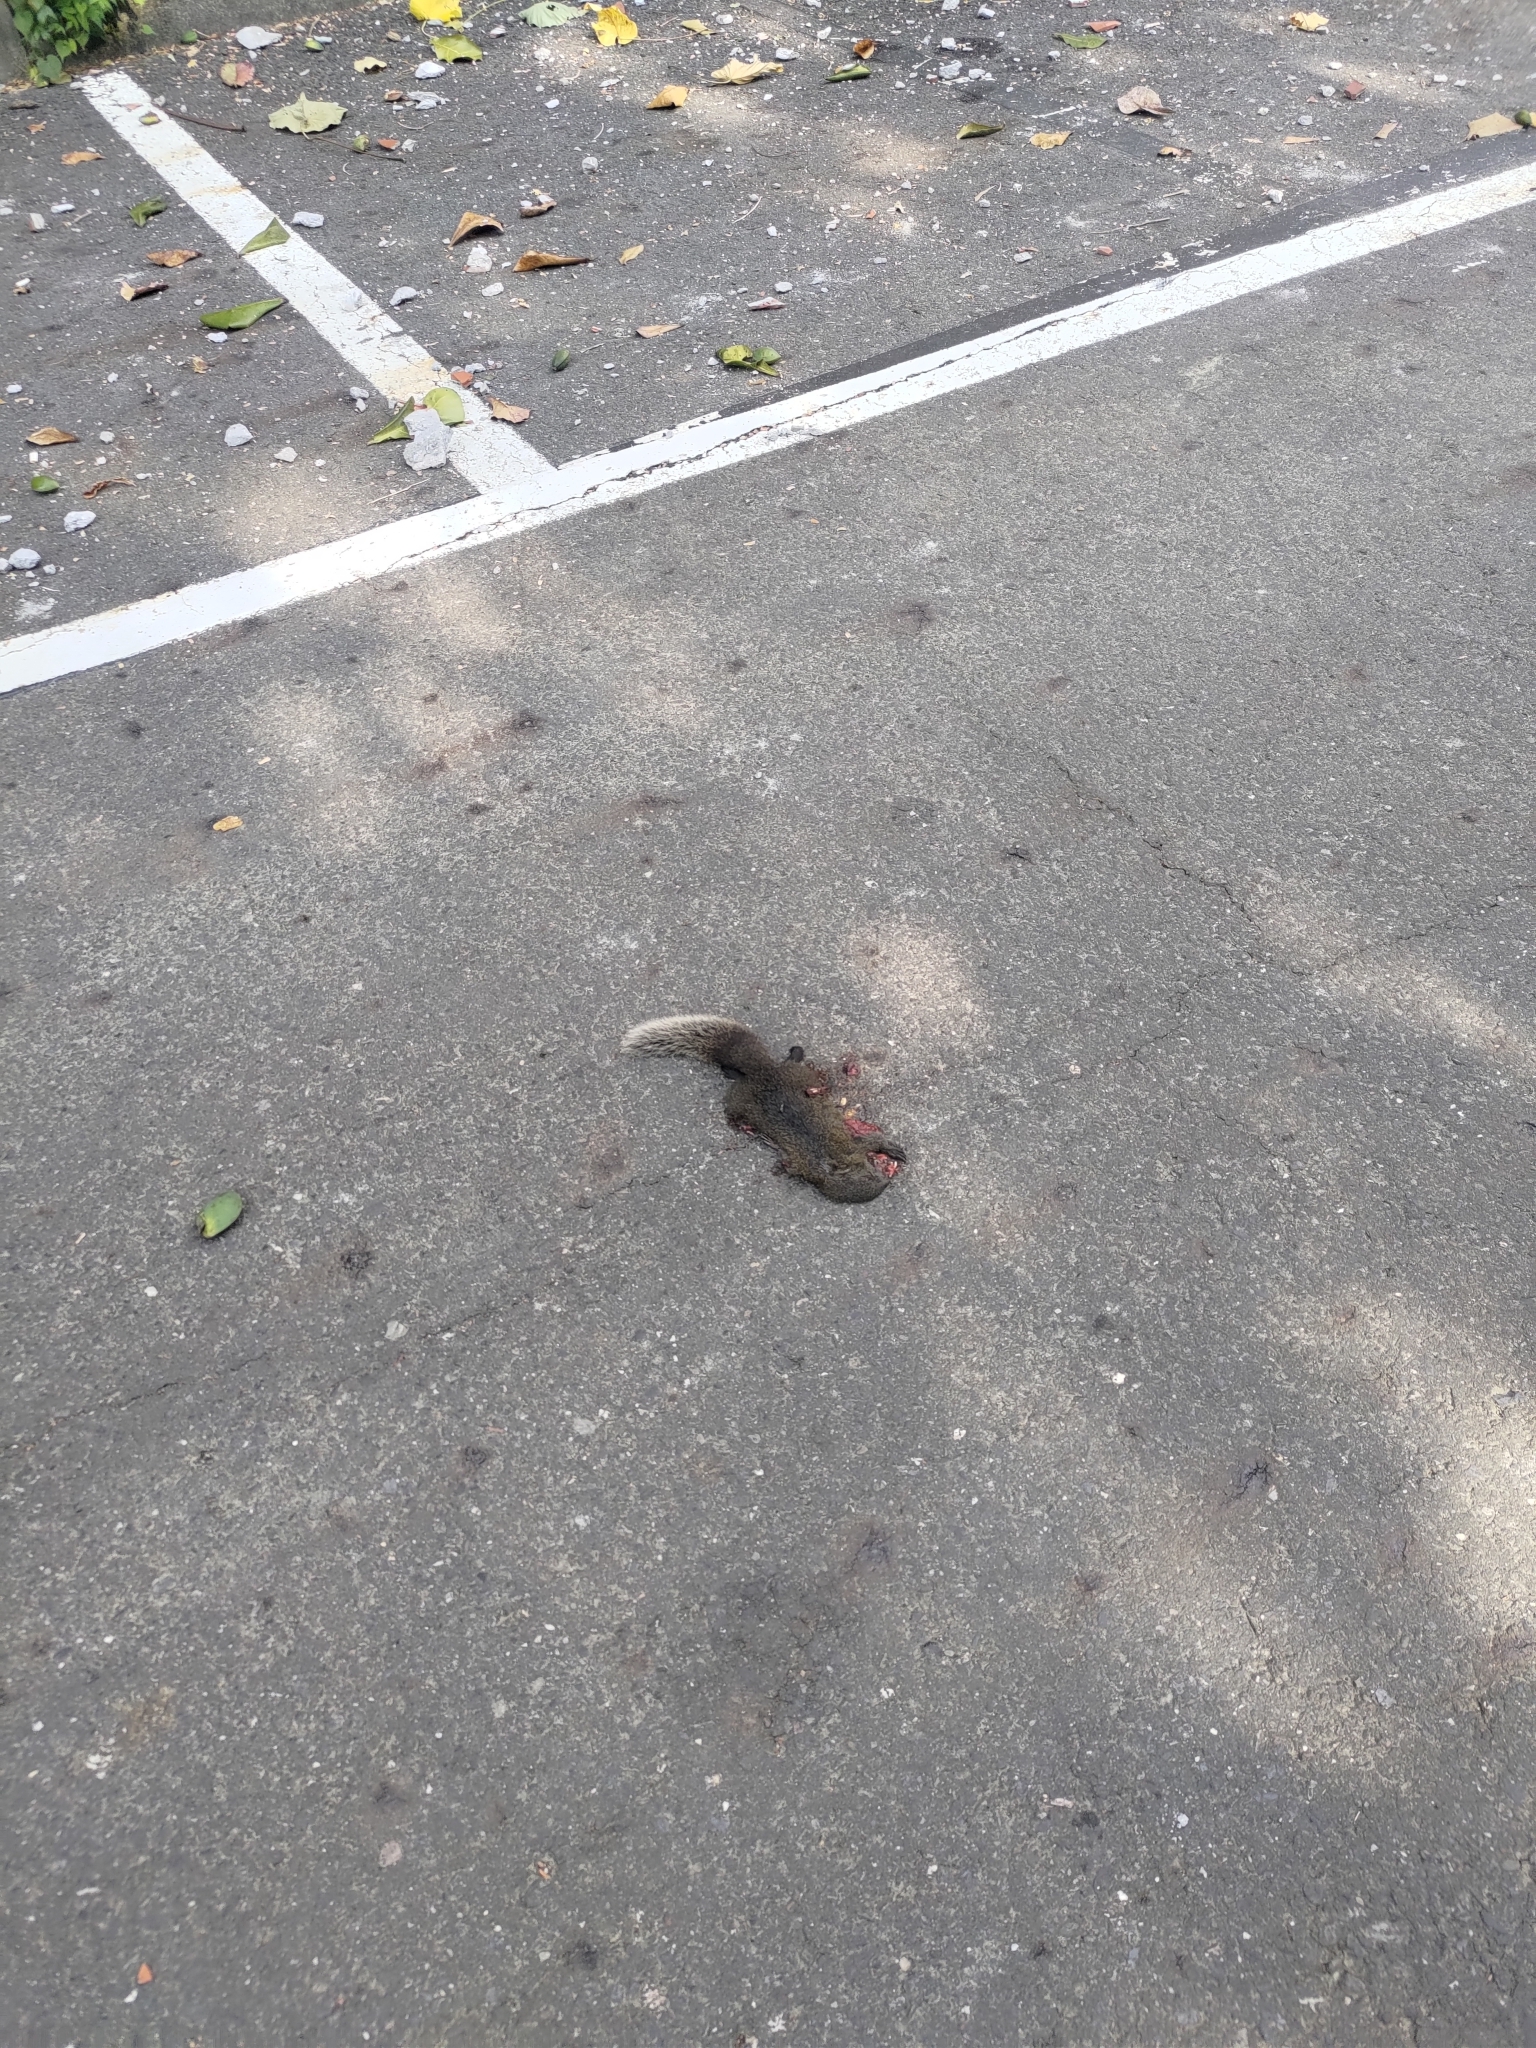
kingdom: Animalia
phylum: Chordata
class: Mammalia
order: Rodentia
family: Sciuridae
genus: Callosciurus
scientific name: Callosciurus erythraeus
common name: Pallas's squirrel
